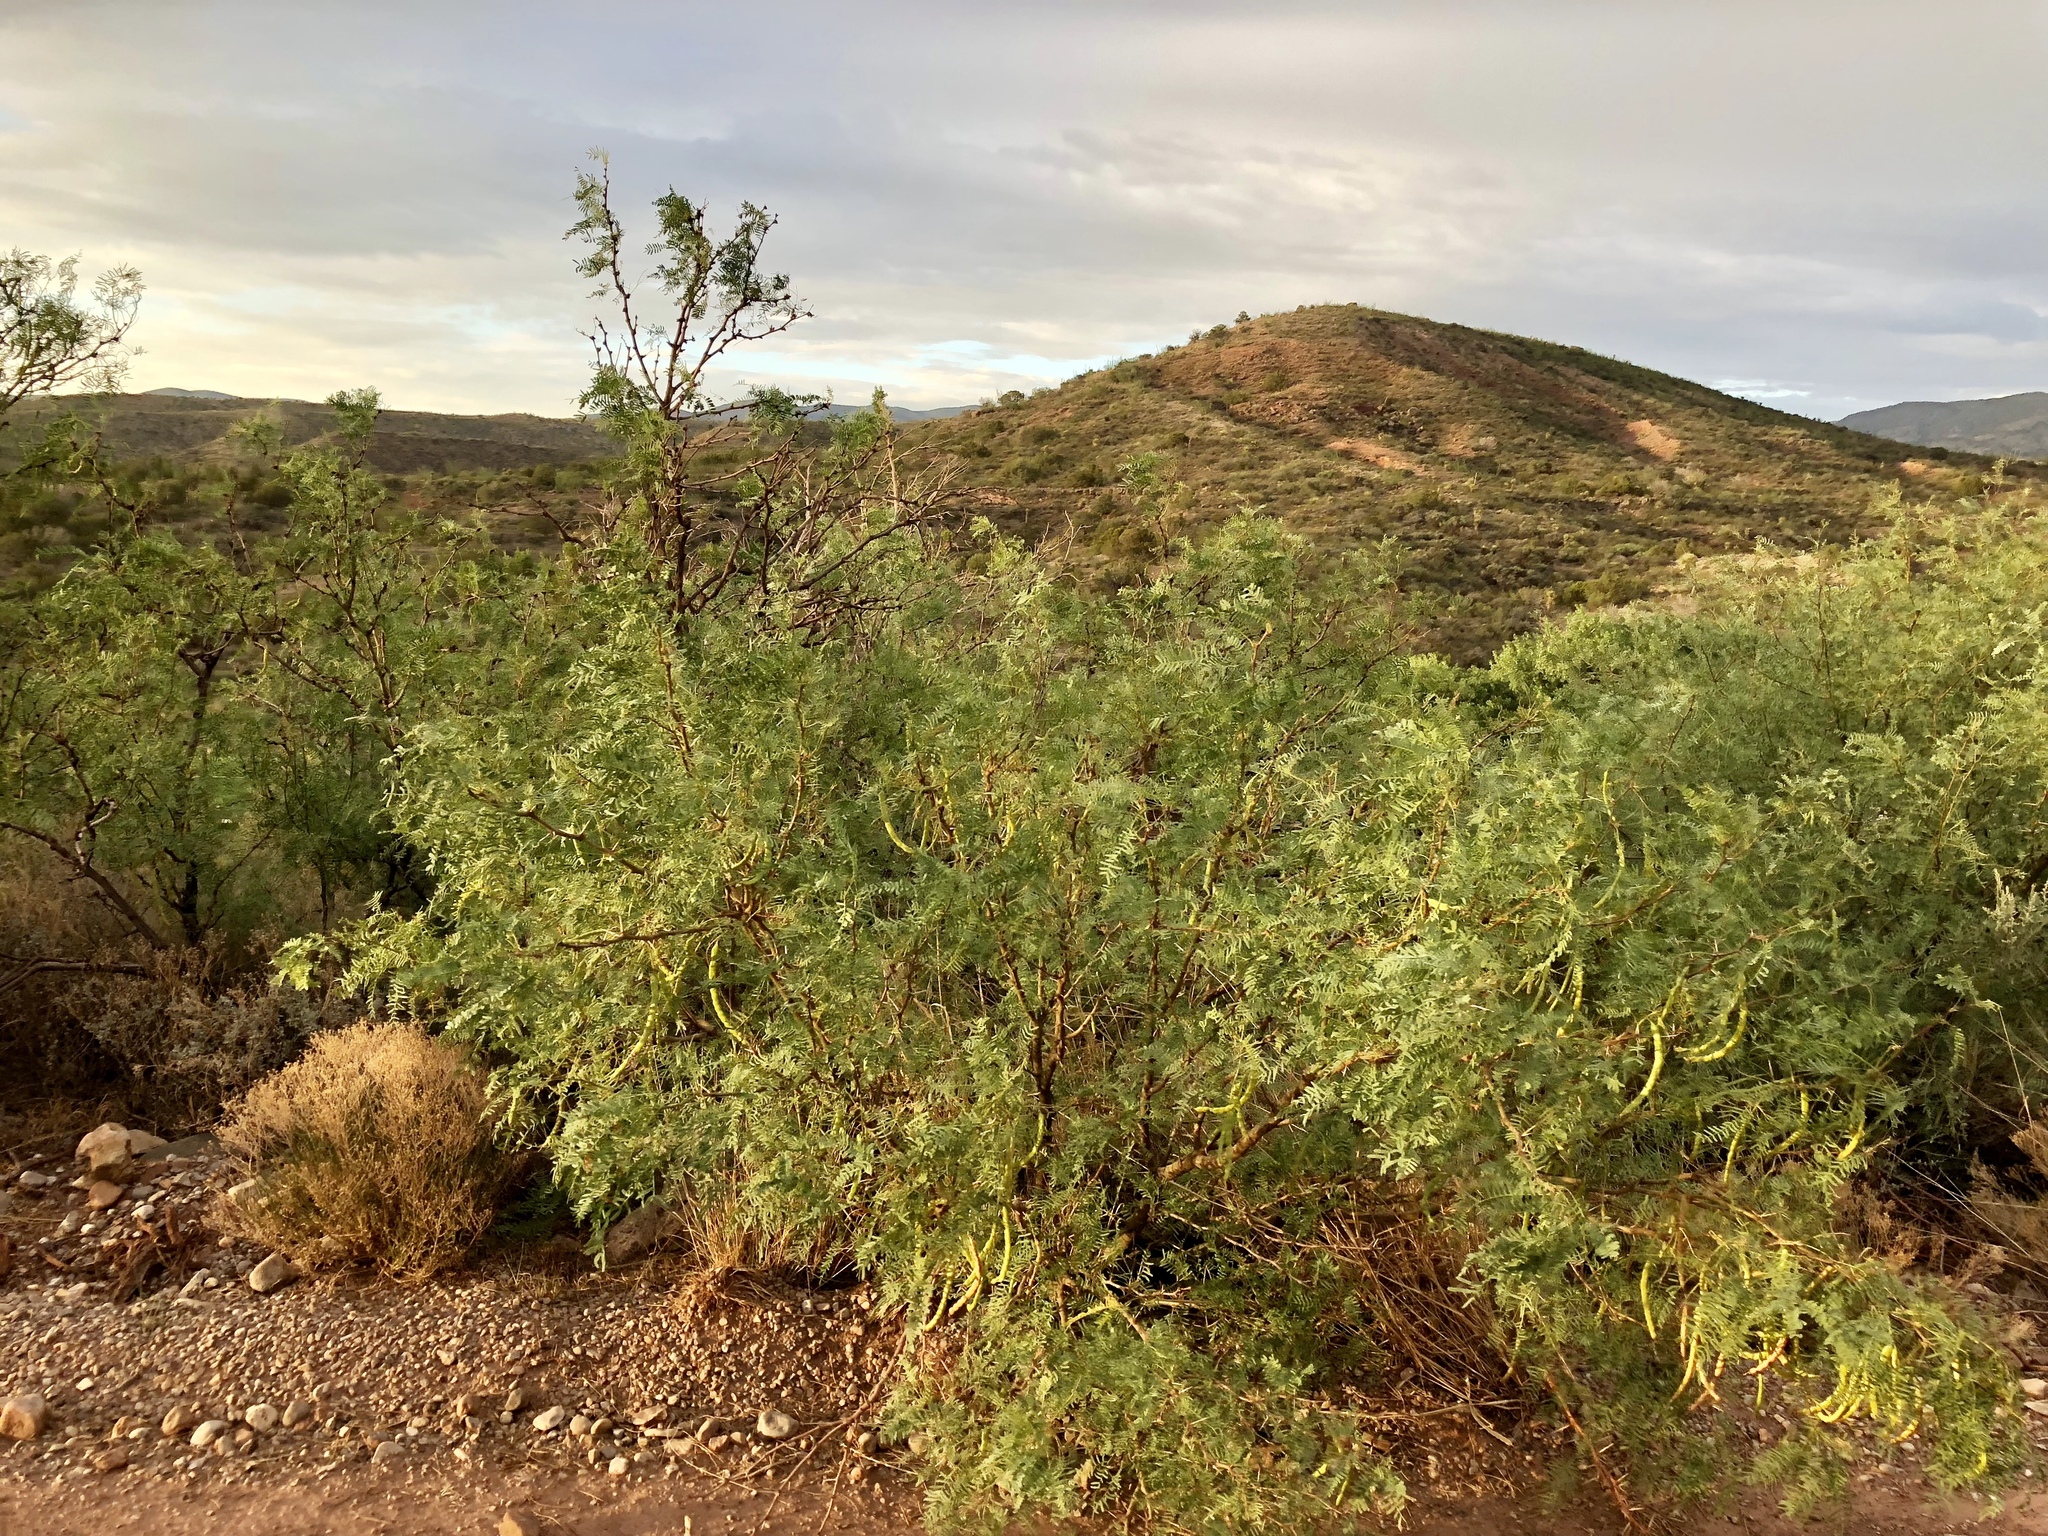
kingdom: Plantae
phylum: Tracheophyta
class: Magnoliopsida
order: Fabales
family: Fabaceae
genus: Prosopis
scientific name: Prosopis glandulosa
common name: Honey mesquite
